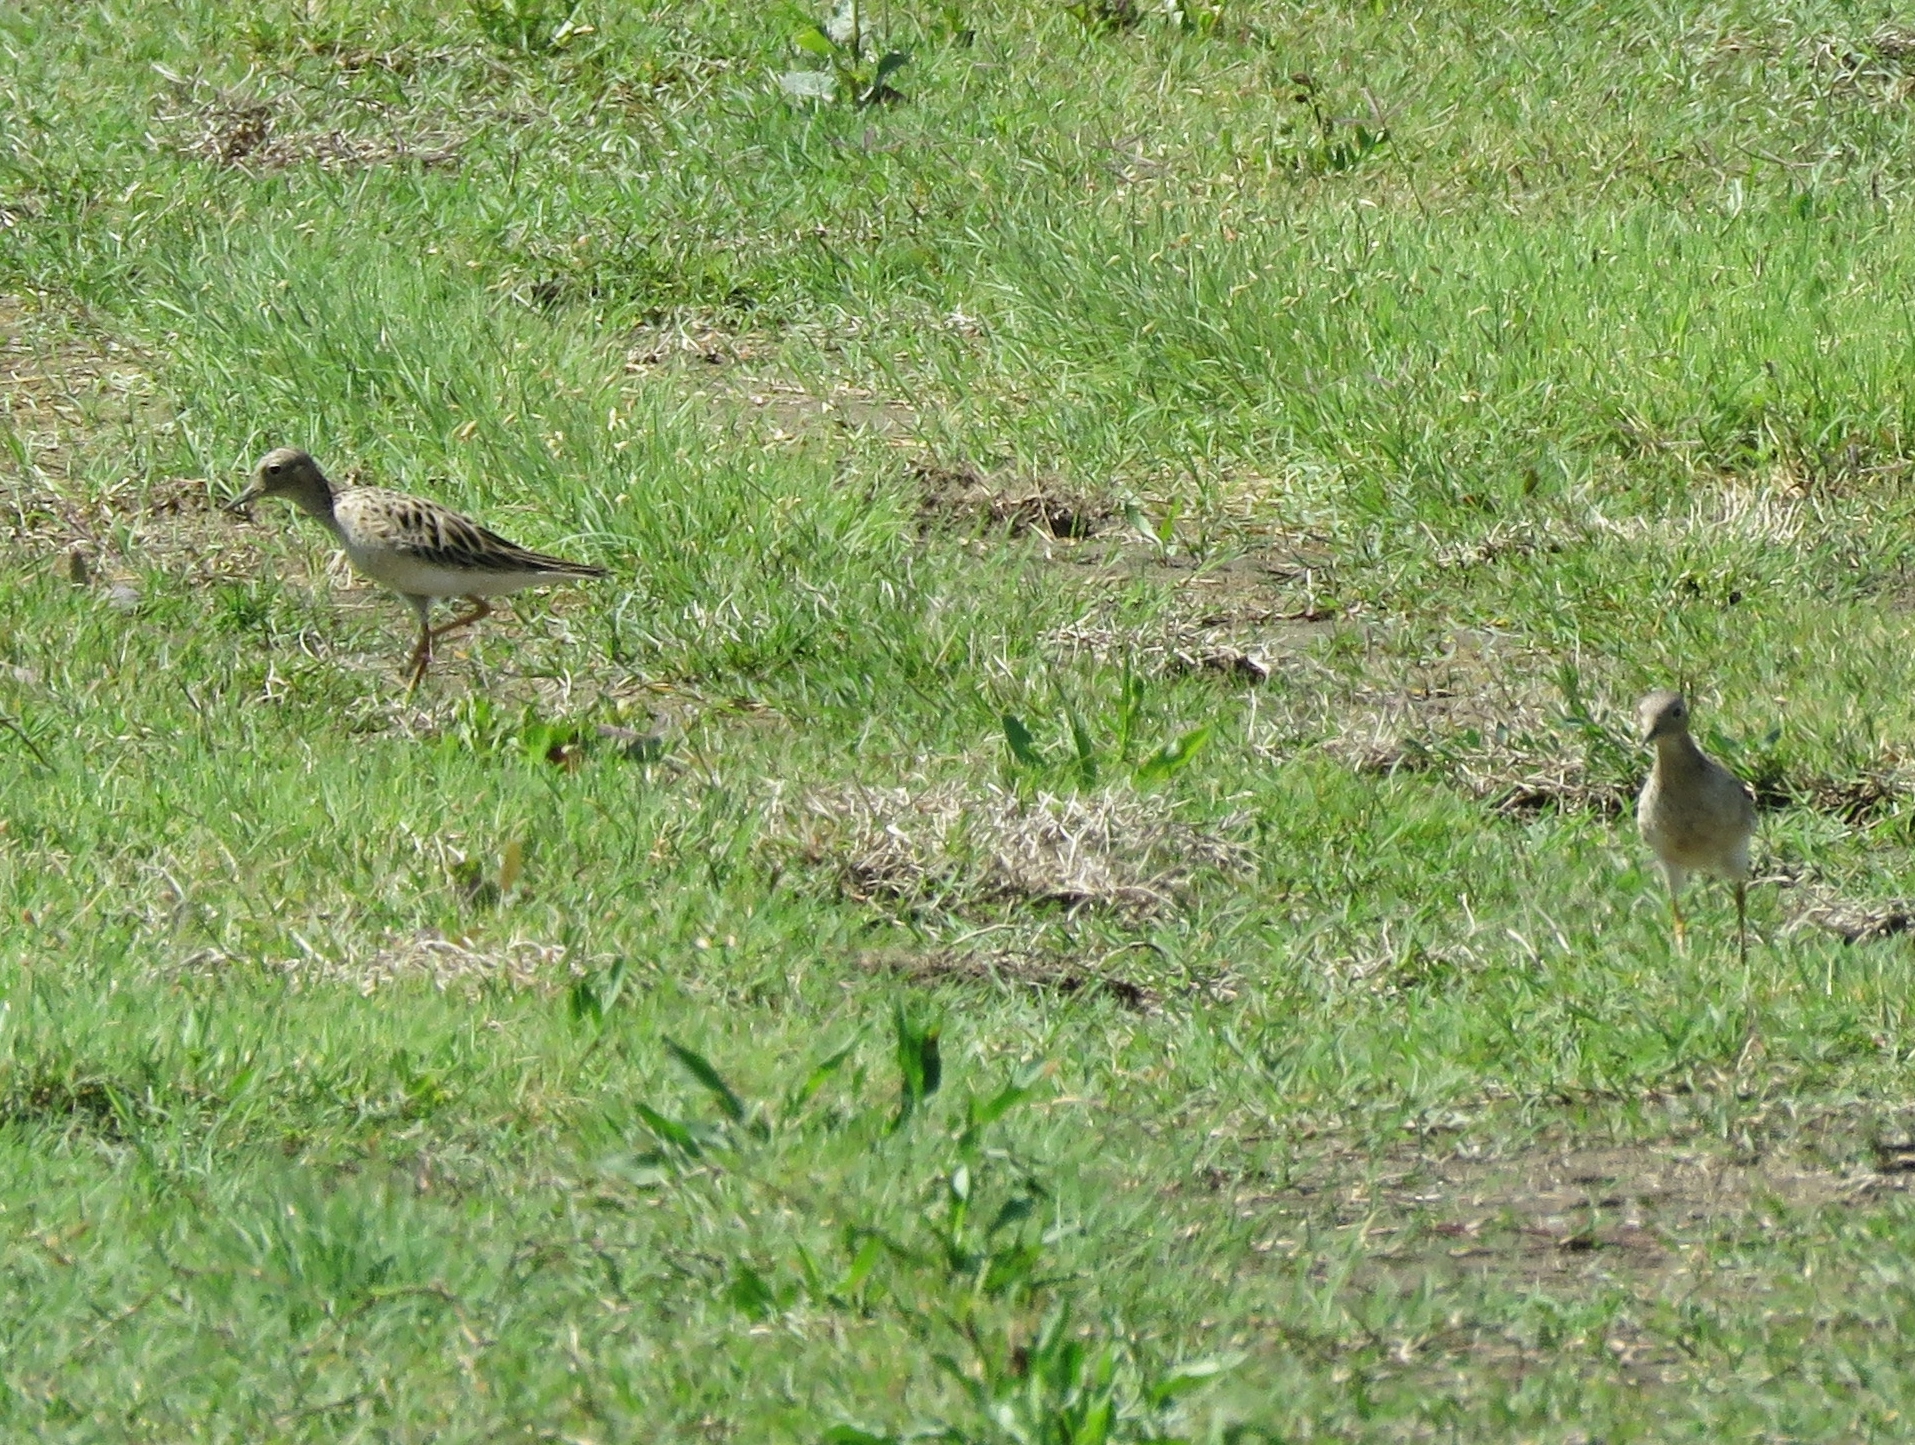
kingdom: Animalia
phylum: Chordata
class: Aves
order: Charadriiformes
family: Scolopacidae
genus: Calidris
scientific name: Calidris subruficollis
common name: Buff-breasted sandpiper
